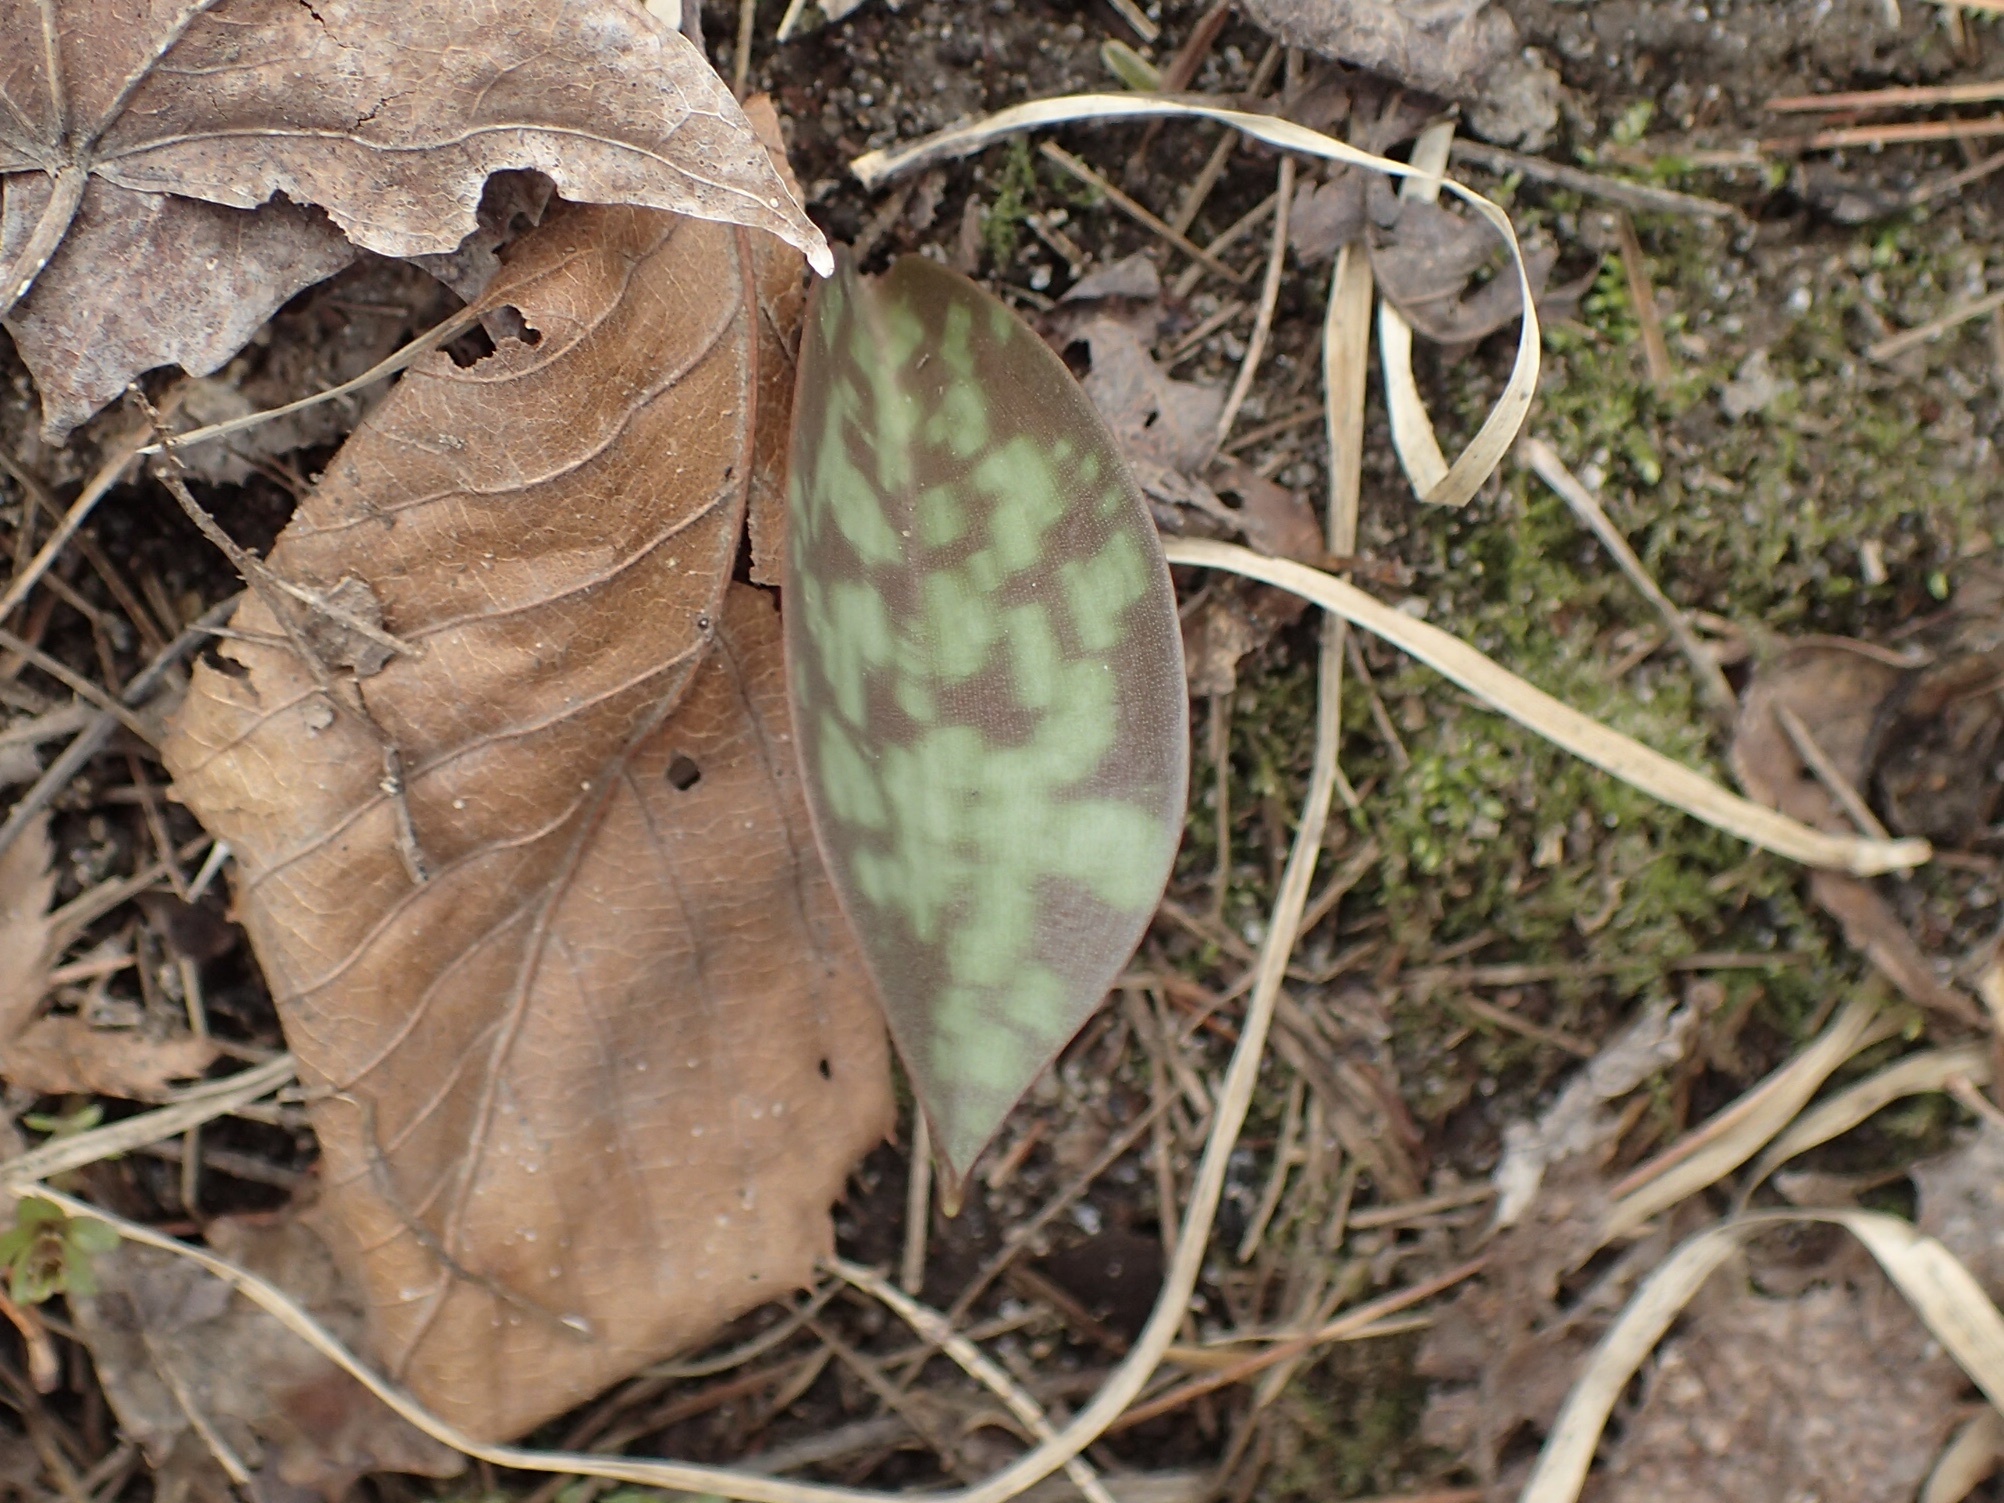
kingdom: Plantae
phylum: Tracheophyta
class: Liliopsida
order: Liliales
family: Liliaceae
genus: Erythronium
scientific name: Erythronium americanum
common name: Yellow adder's-tongue
